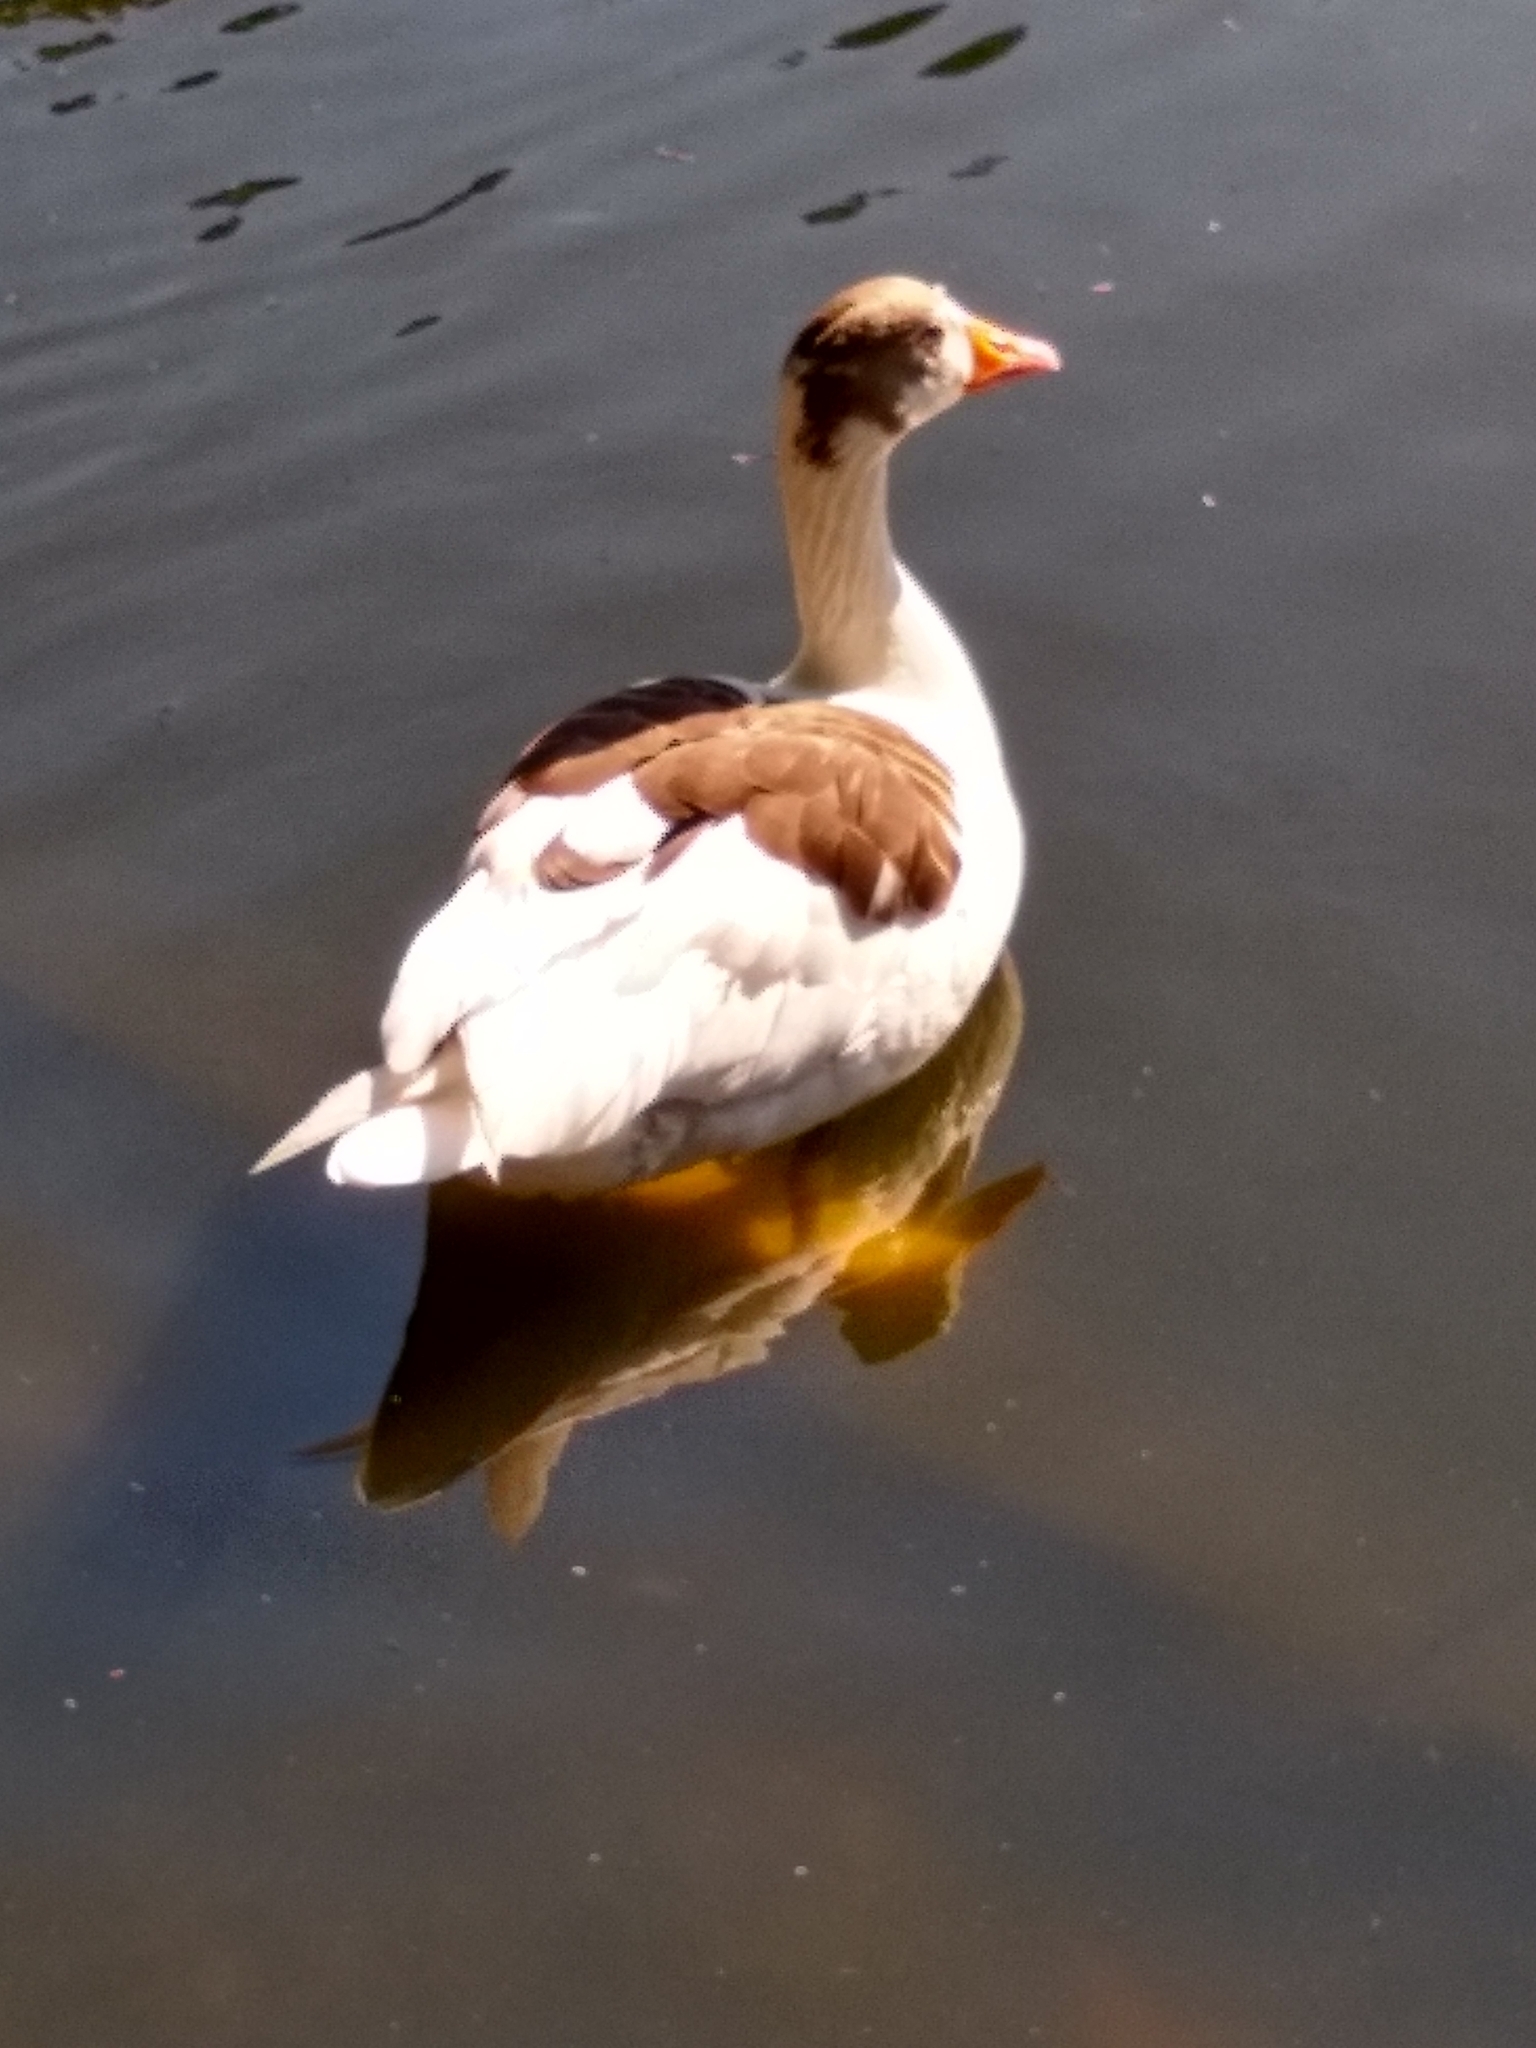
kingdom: Animalia
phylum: Chordata
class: Aves
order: Anseriformes
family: Anatidae
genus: Anser
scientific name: Anser anser
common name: Greylag goose
